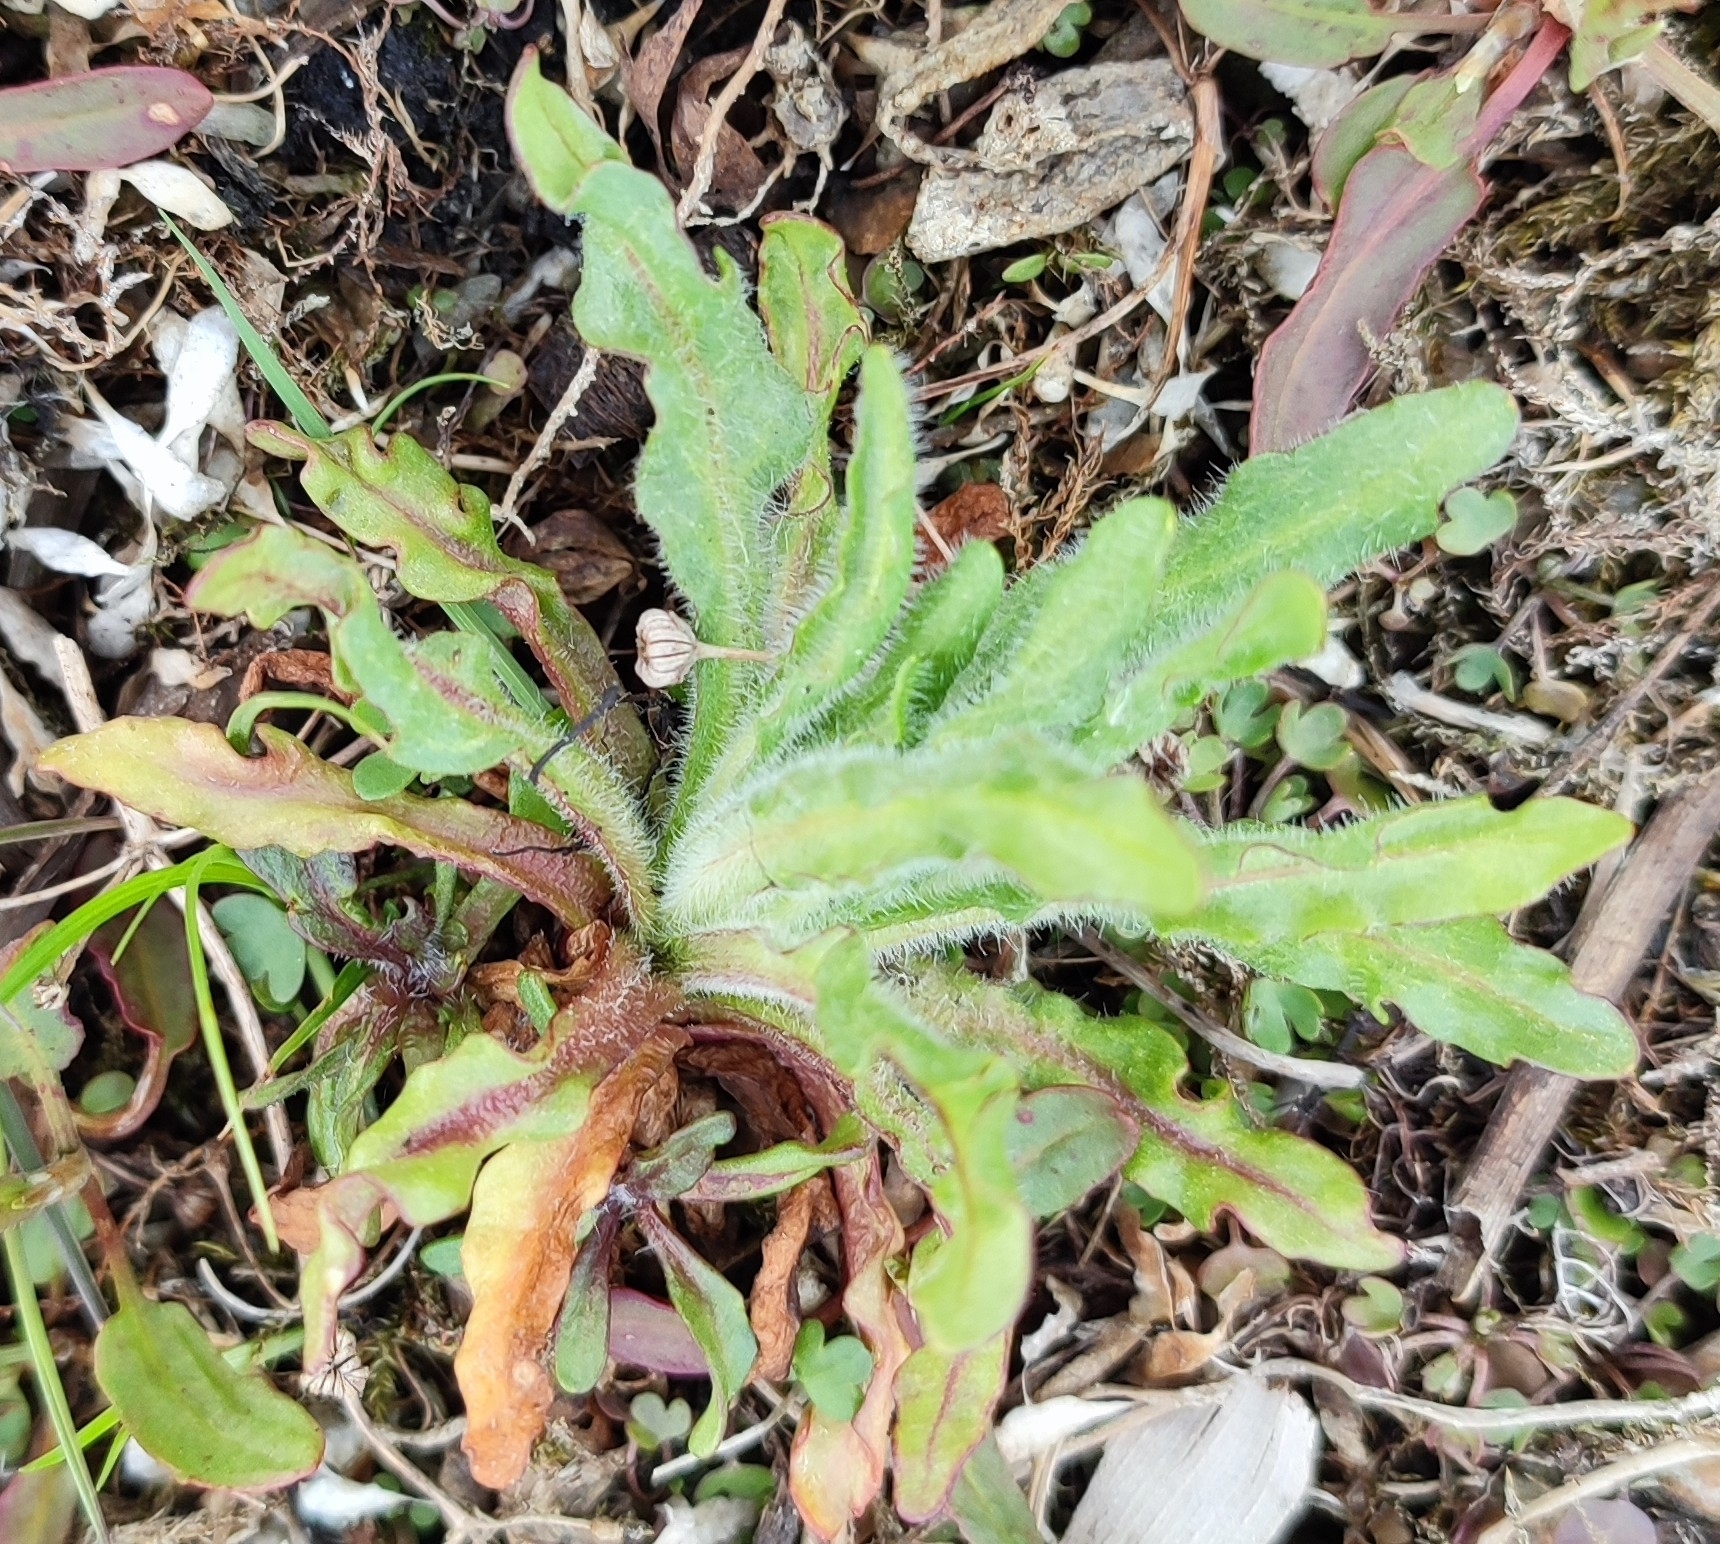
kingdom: Plantae
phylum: Tracheophyta
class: Magnoliopsida
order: Asterales
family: Asteraceae
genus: Tephroseris
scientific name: Tephroseris palustris
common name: Marsh fleawort
